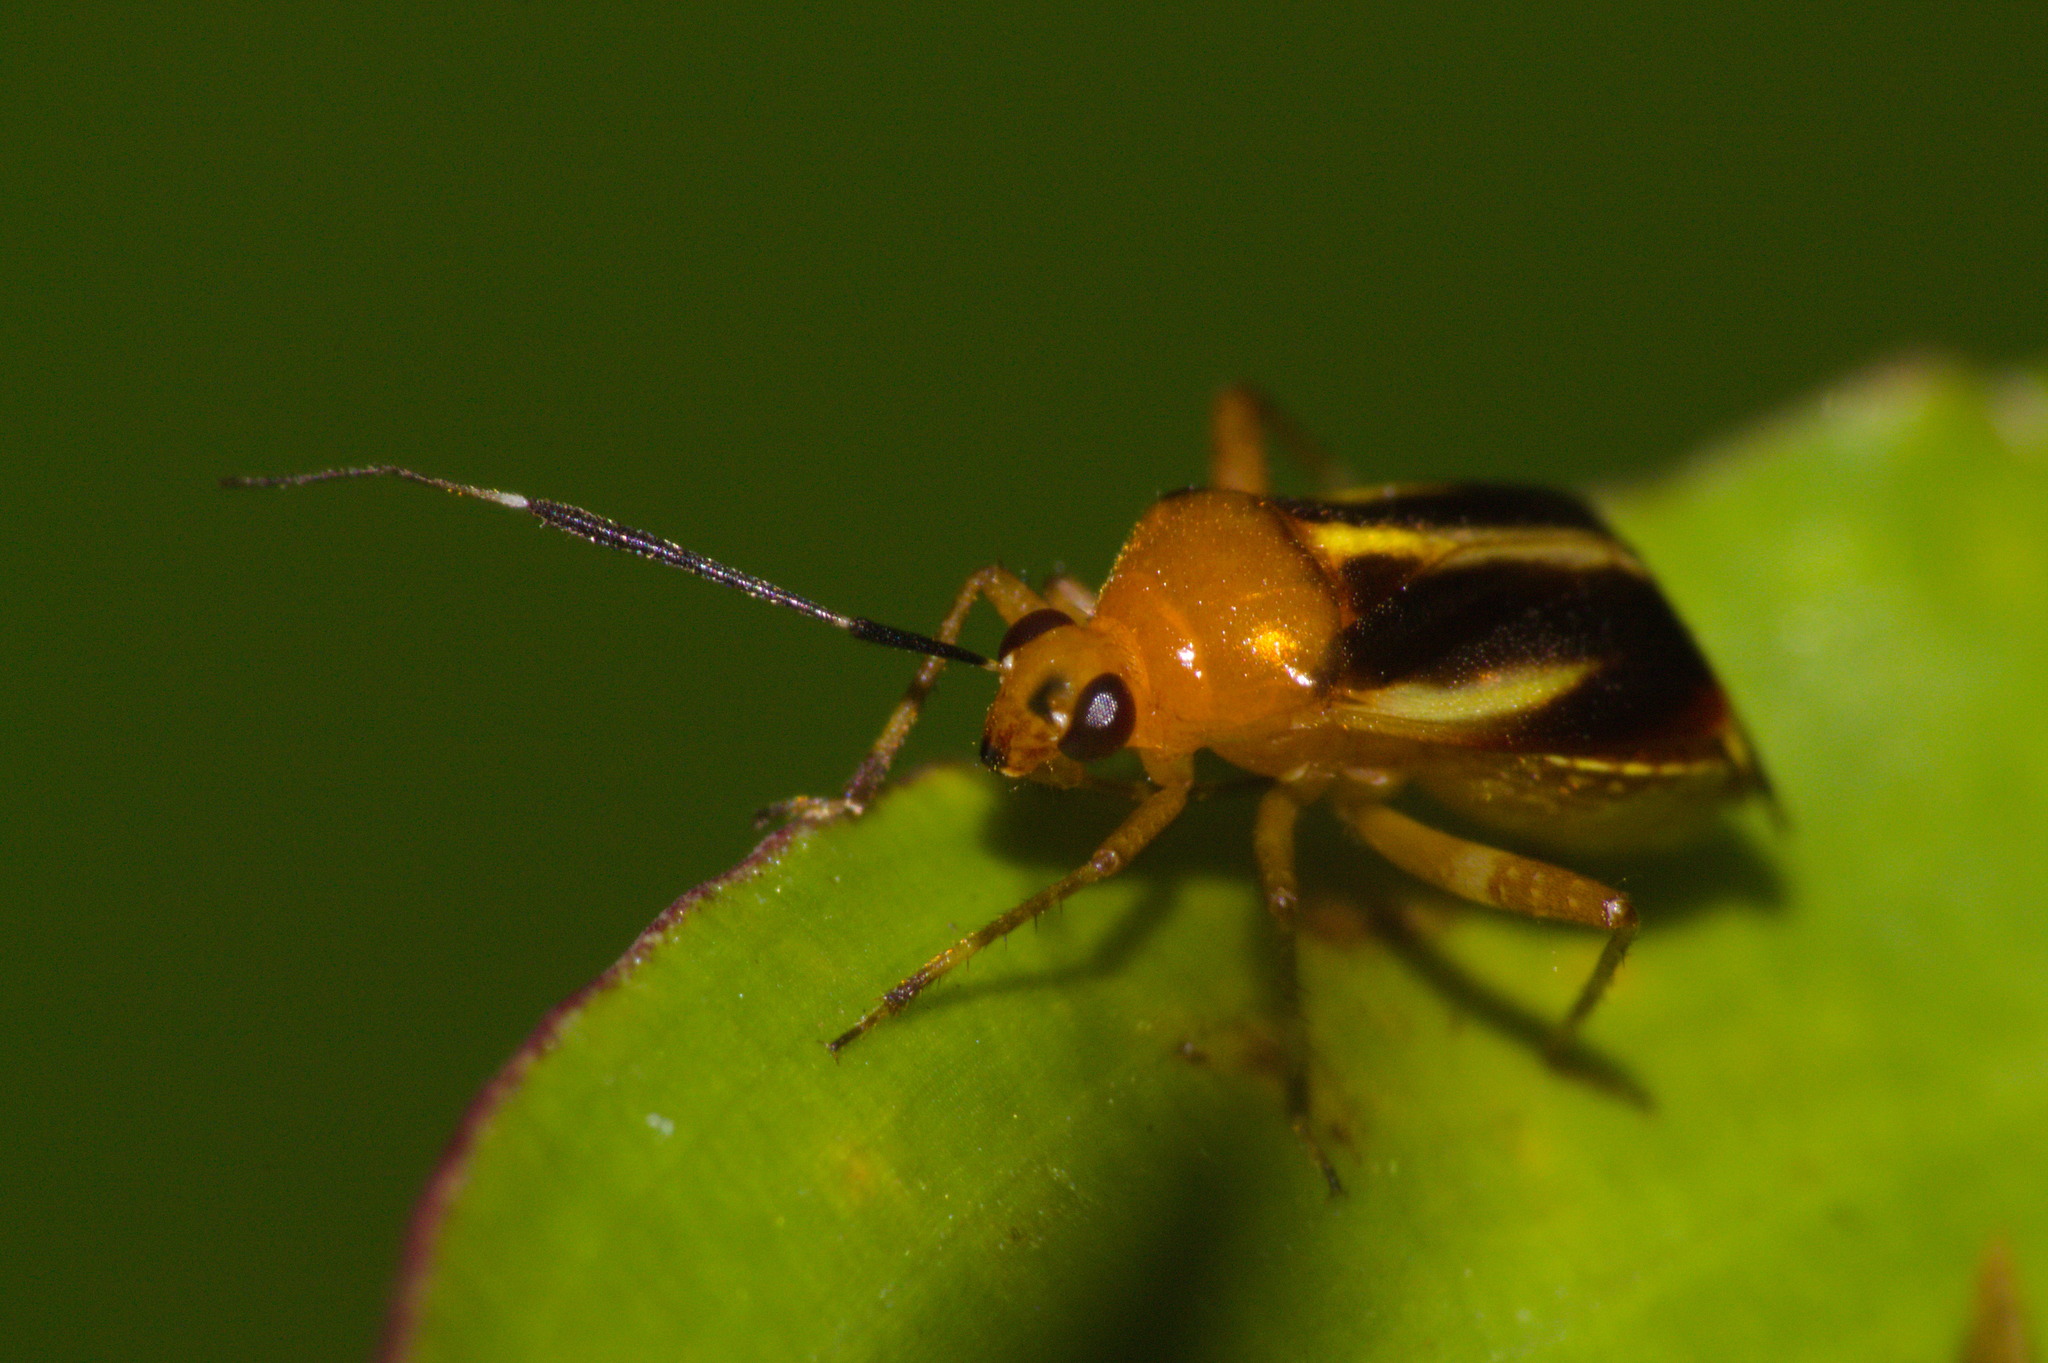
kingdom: Animalia
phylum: Arthropoda
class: Insecta
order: Hemiptera
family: Miridae
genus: Horciasinus
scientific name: Horciasinus signoreti
